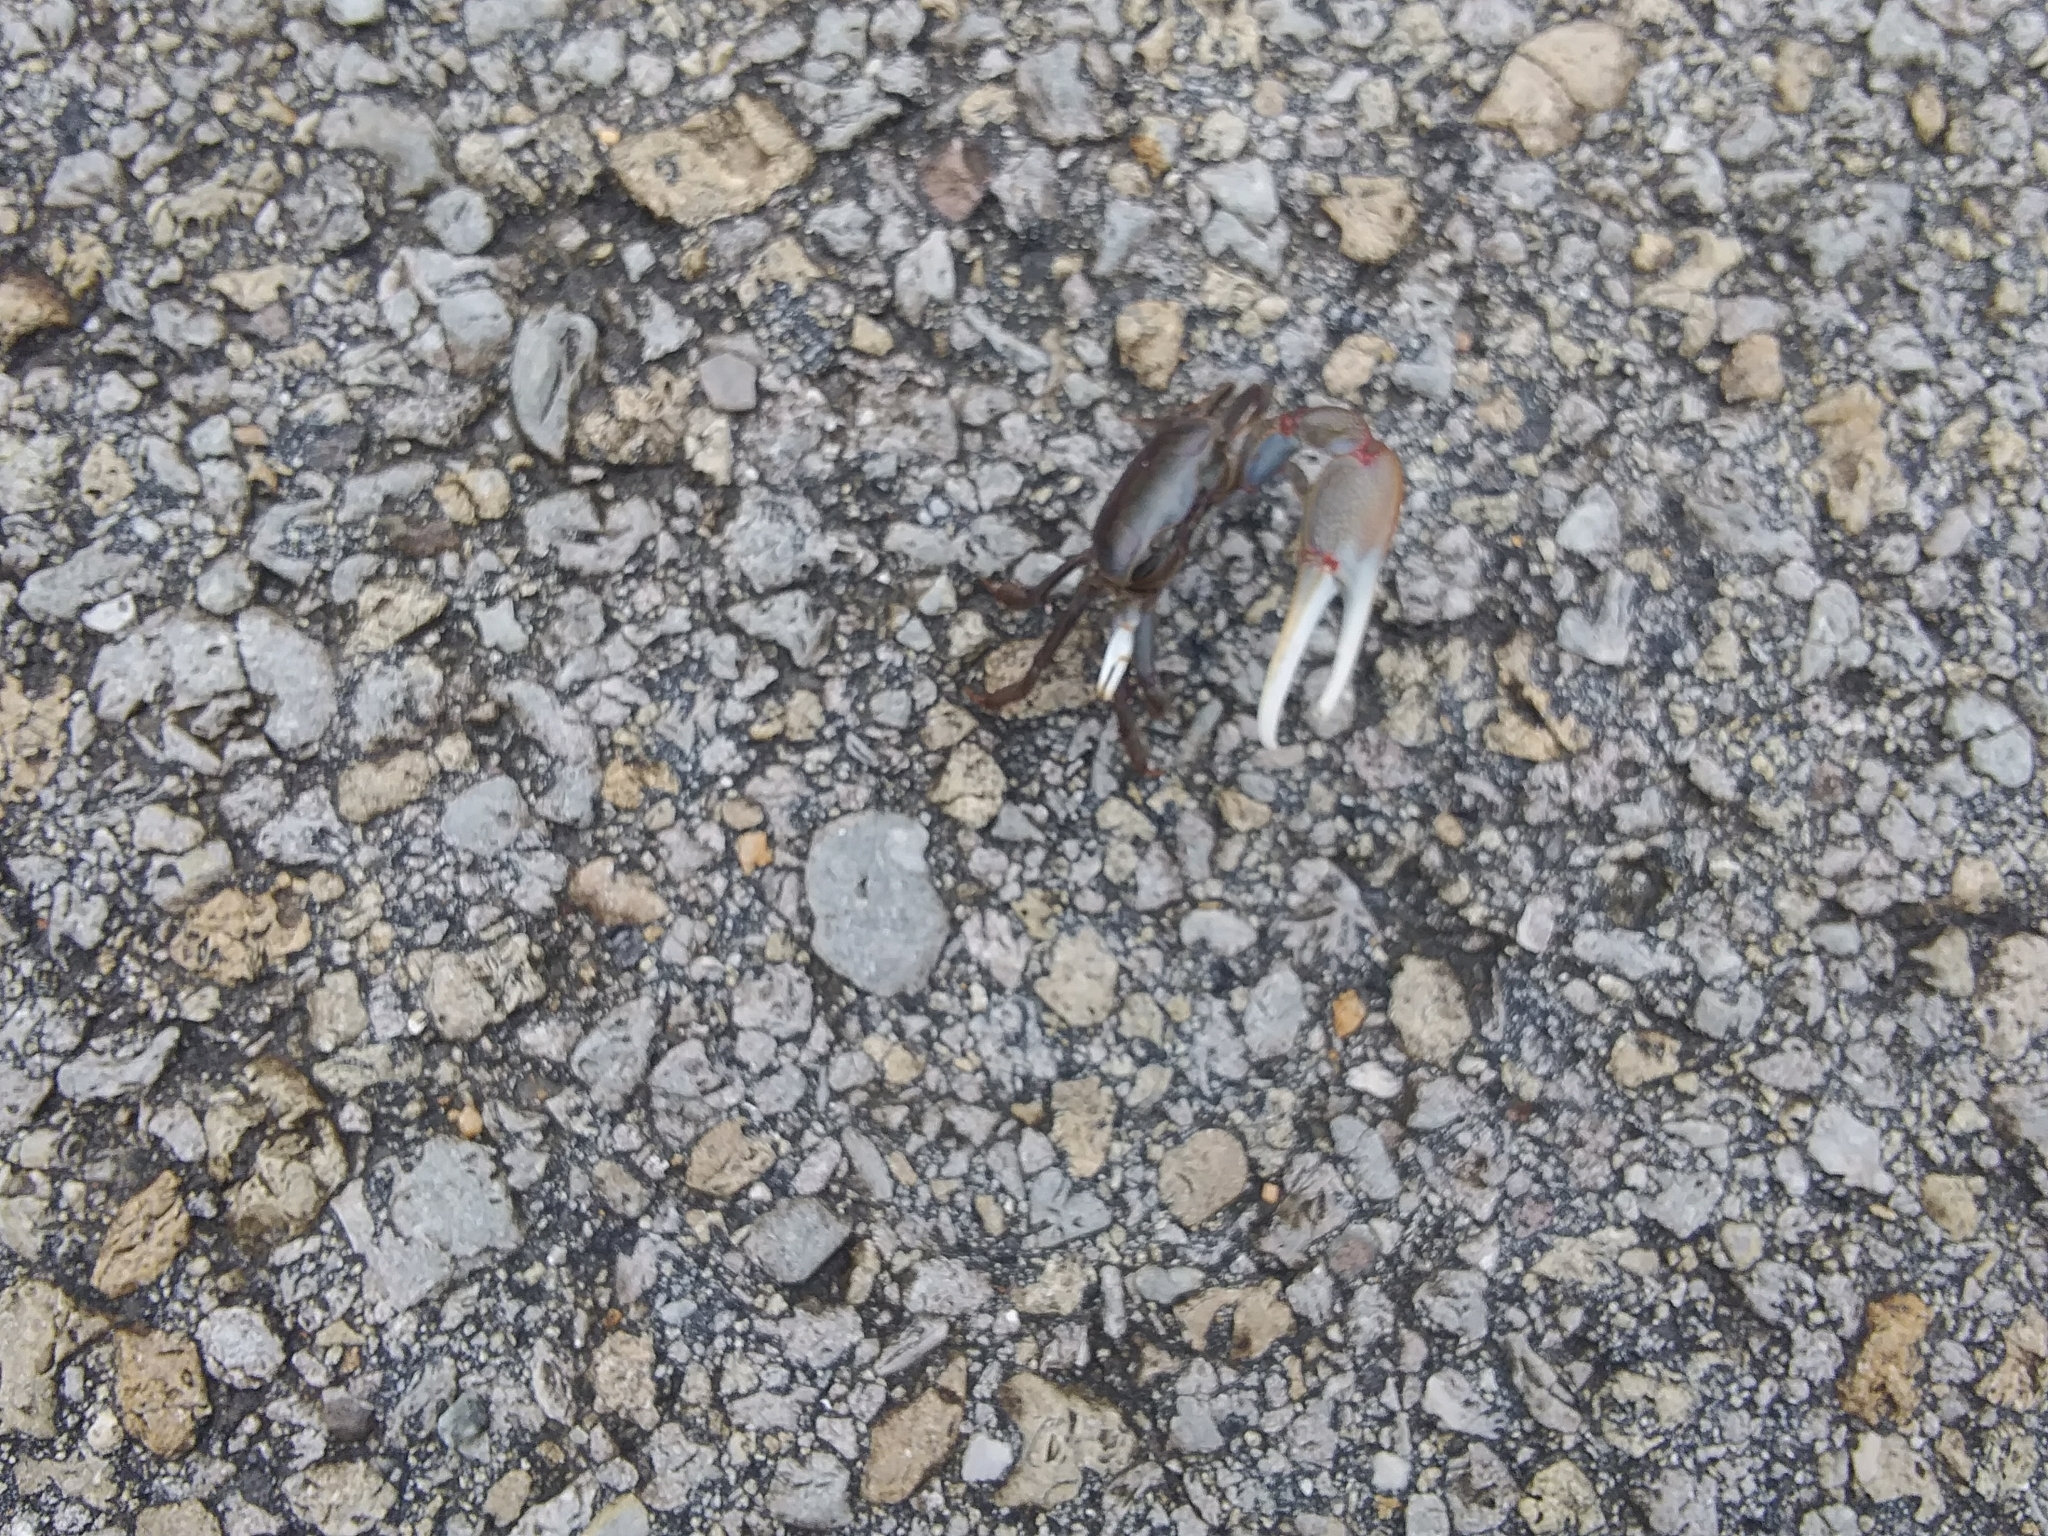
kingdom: Animalia
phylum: Arthropoda
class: Malacostraca
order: Decapoda
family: Ocypodidae
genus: Minuca
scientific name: Minuca minax
